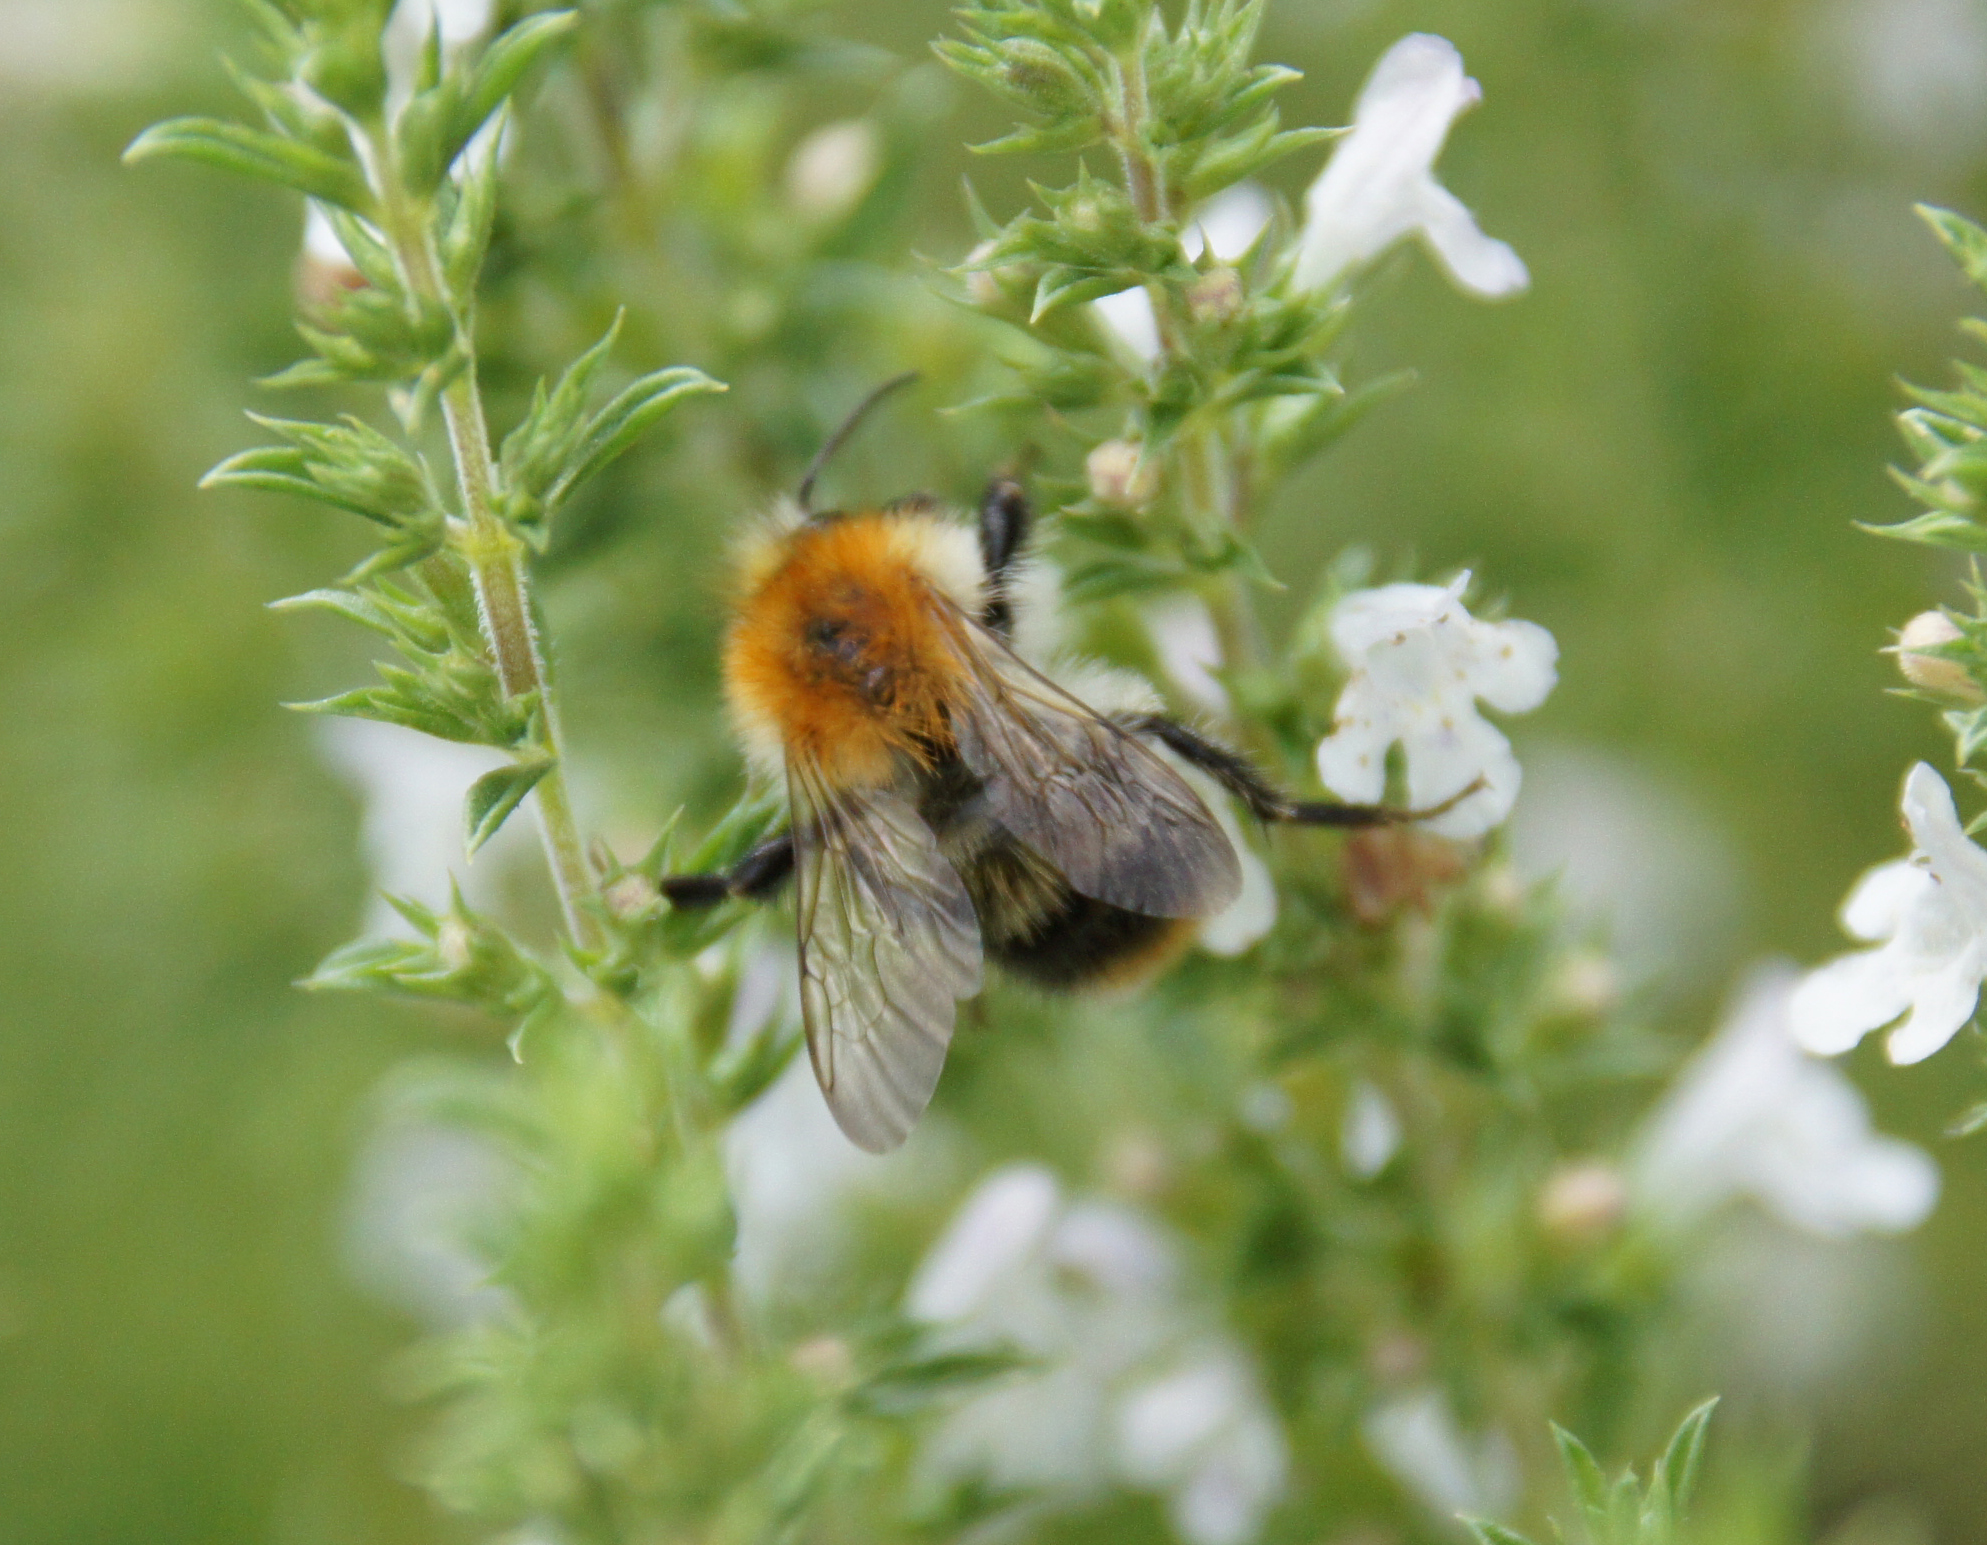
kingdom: Animalia
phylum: Arthropoda
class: Insecta
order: Hymenoptera
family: Apidae
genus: Bombus
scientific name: Bombus pascuorum
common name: Common carder bee
